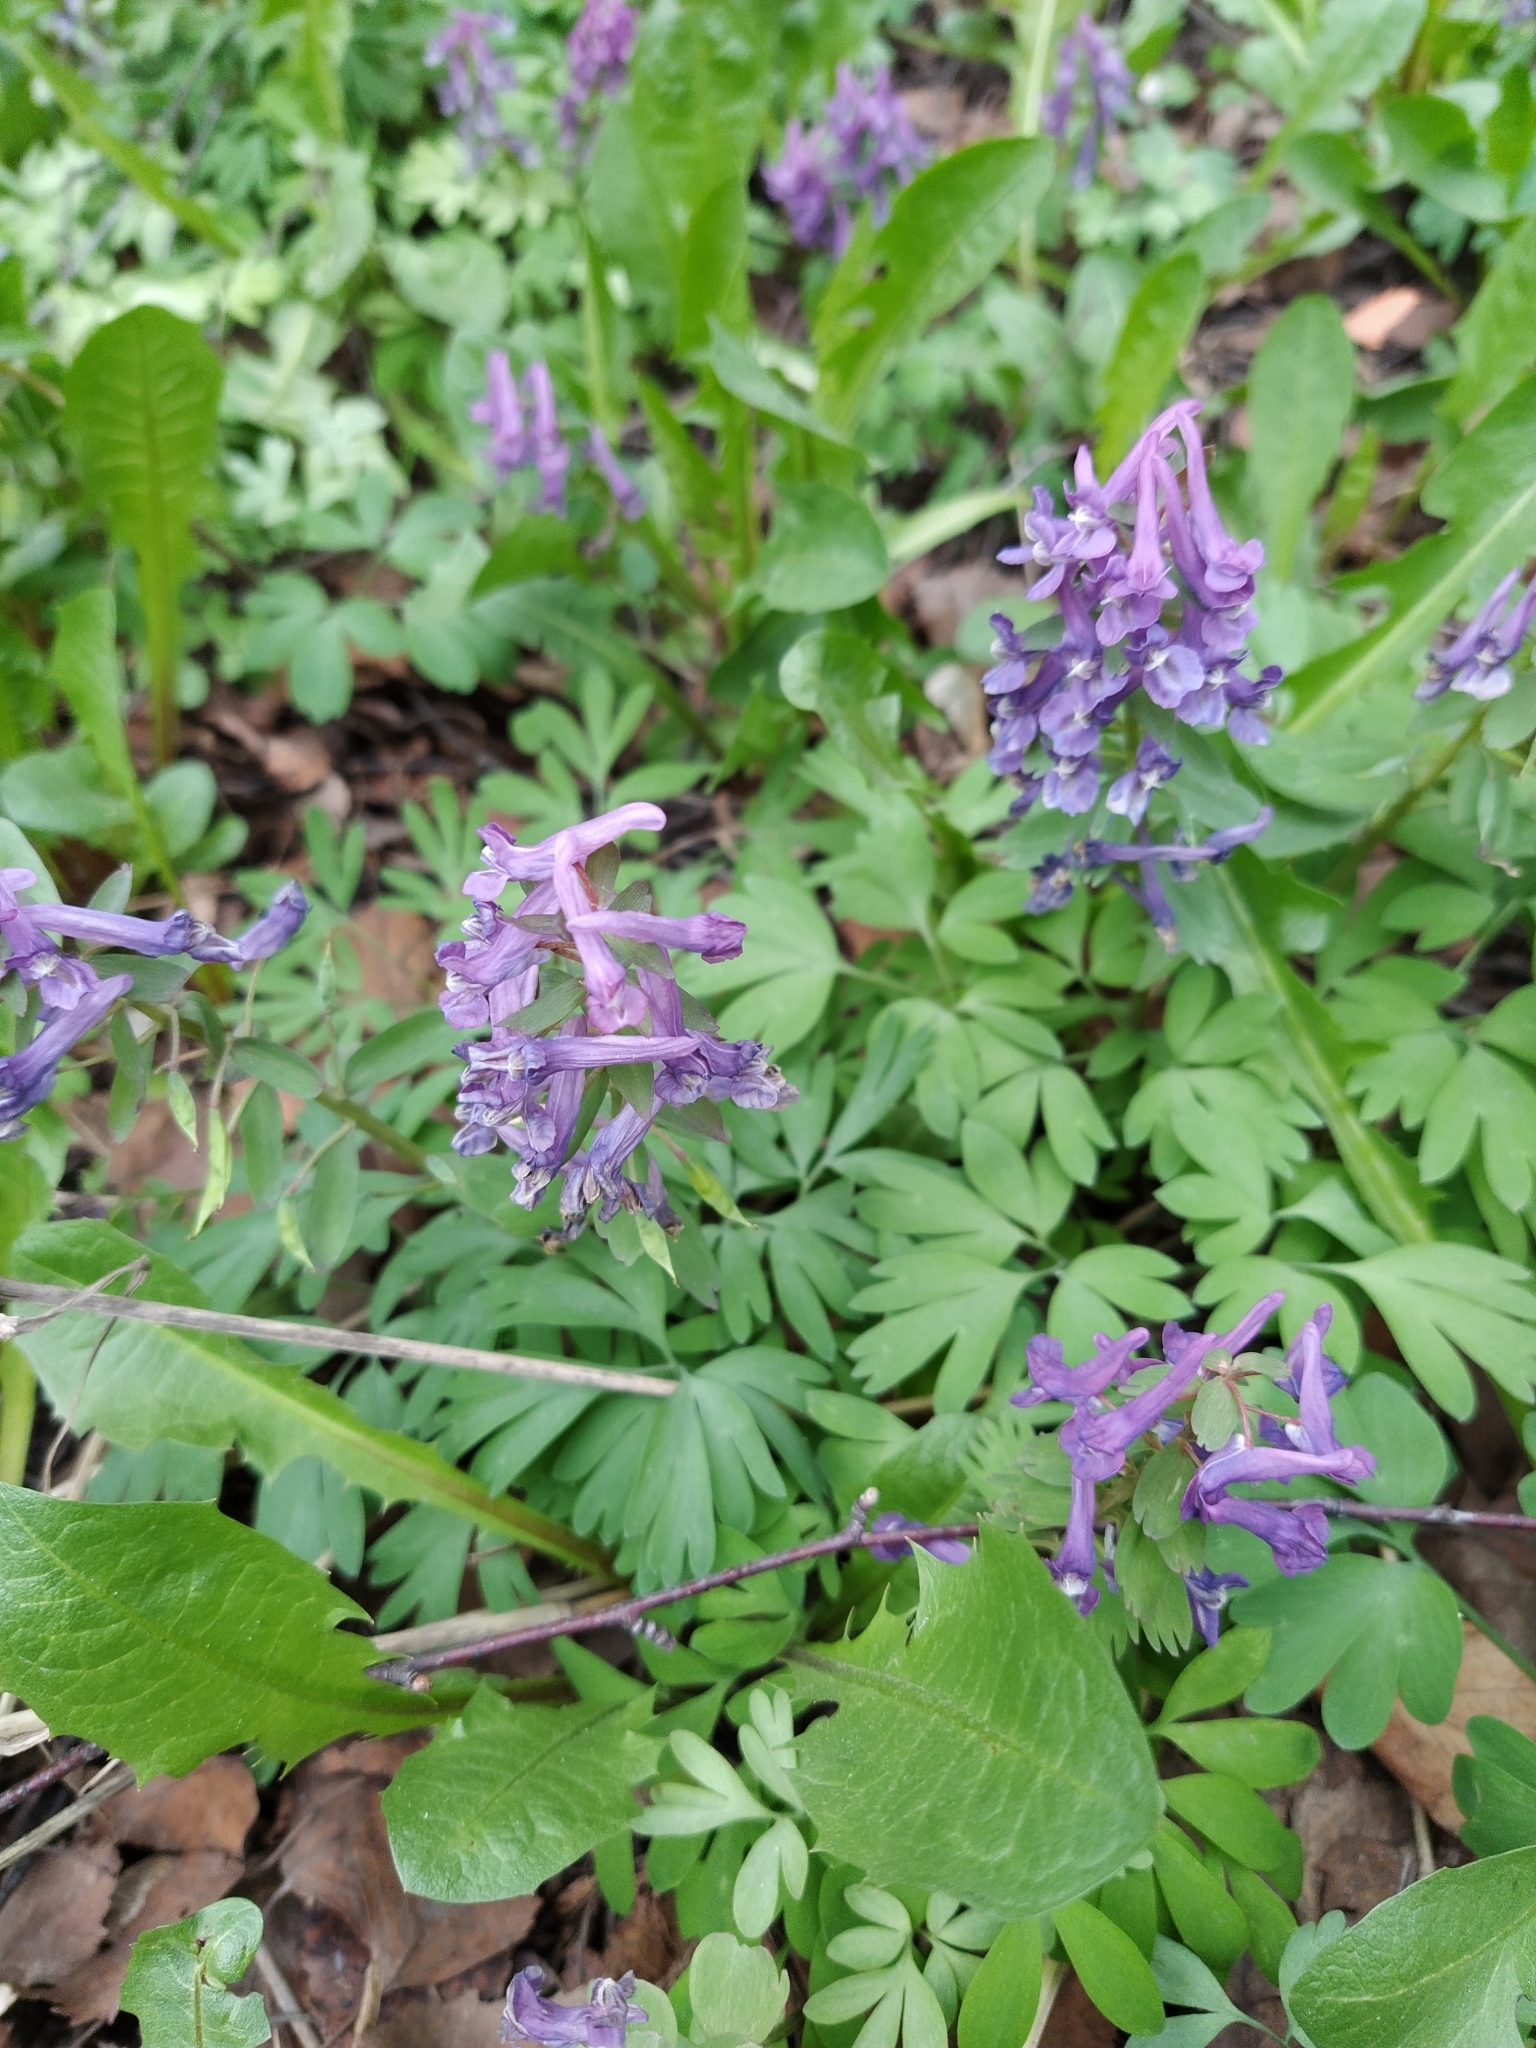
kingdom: Plantae
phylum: Tracheophyta
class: Magnoliopsida
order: Ranunculales
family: Papaveraceae
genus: Corydalis
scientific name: Corydalis solida
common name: Bird-in-a-bush
